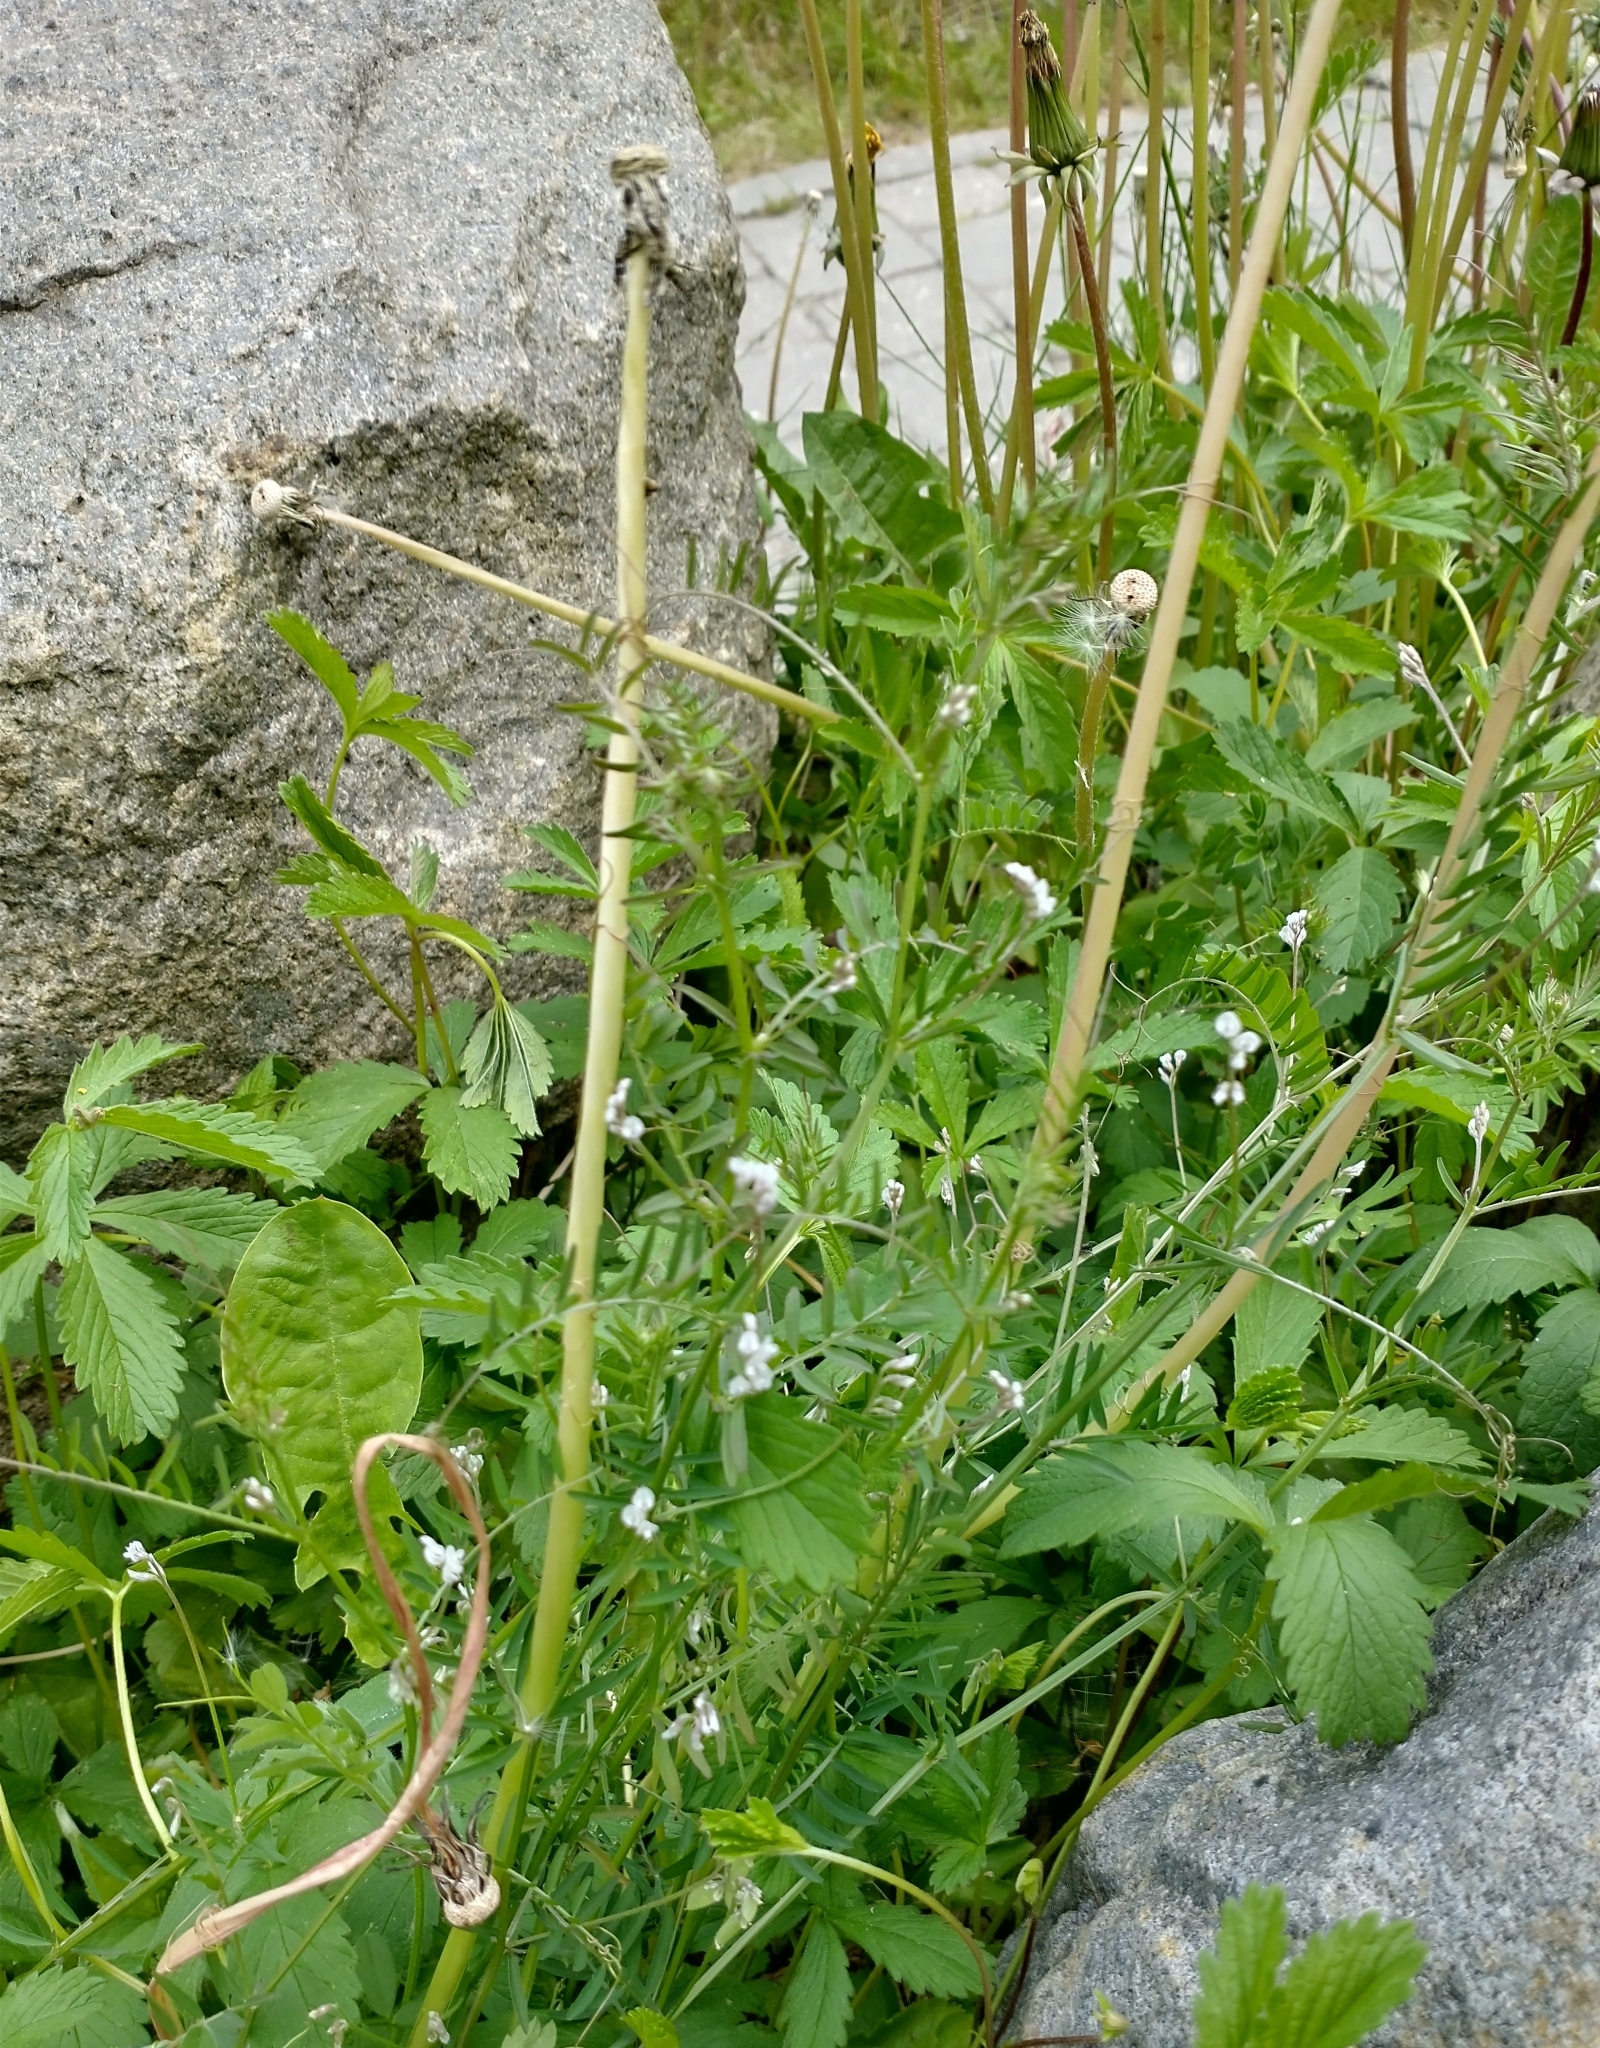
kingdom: Plantae
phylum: Tracheophyta
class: Magnoliopsida
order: Fabales
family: Fabaceae
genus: Vicia
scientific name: Vicia hirsuta
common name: Tiny vetch
